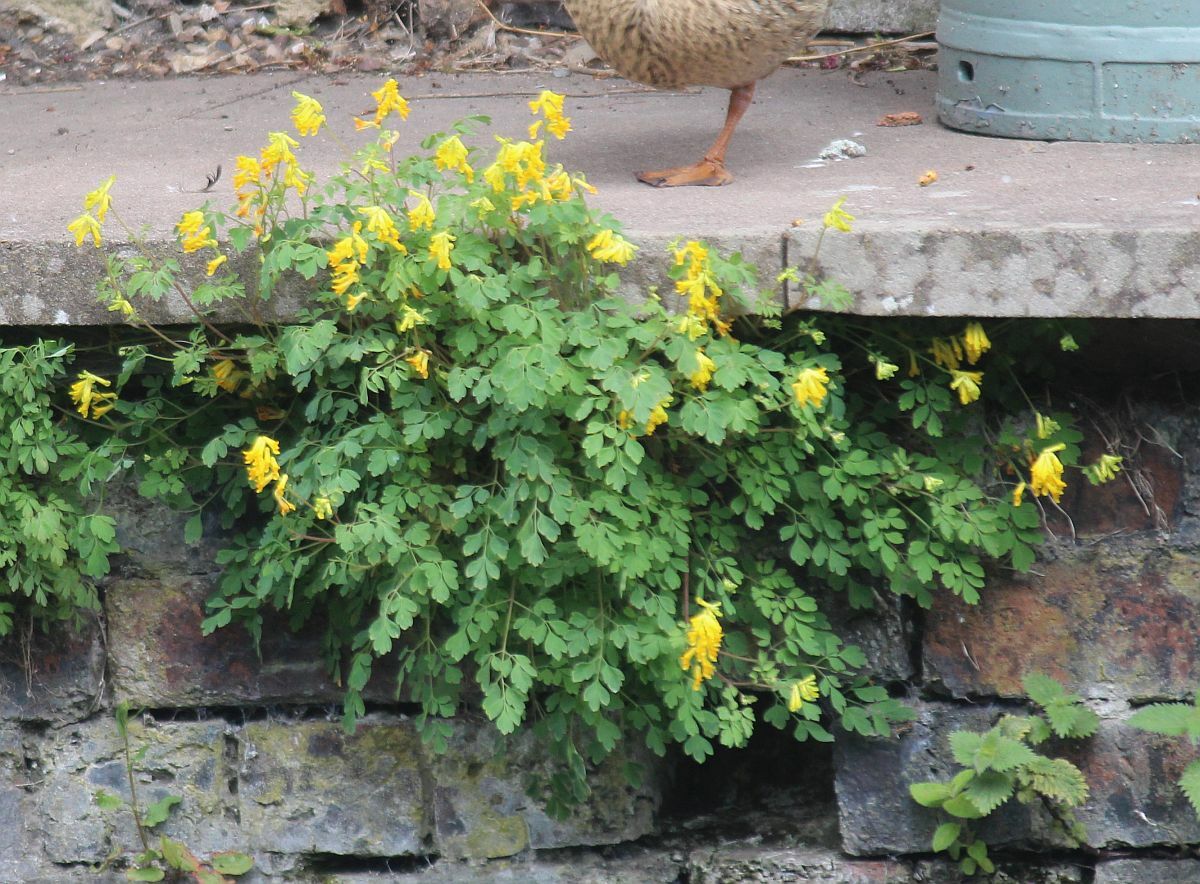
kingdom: Plantae
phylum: Tracheophyta
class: Magnoliopsida
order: Ranunculales
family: Papaveraceae
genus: Pseudofumaria
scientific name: Pseudofumaria lutea
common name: Yellow corydalis
